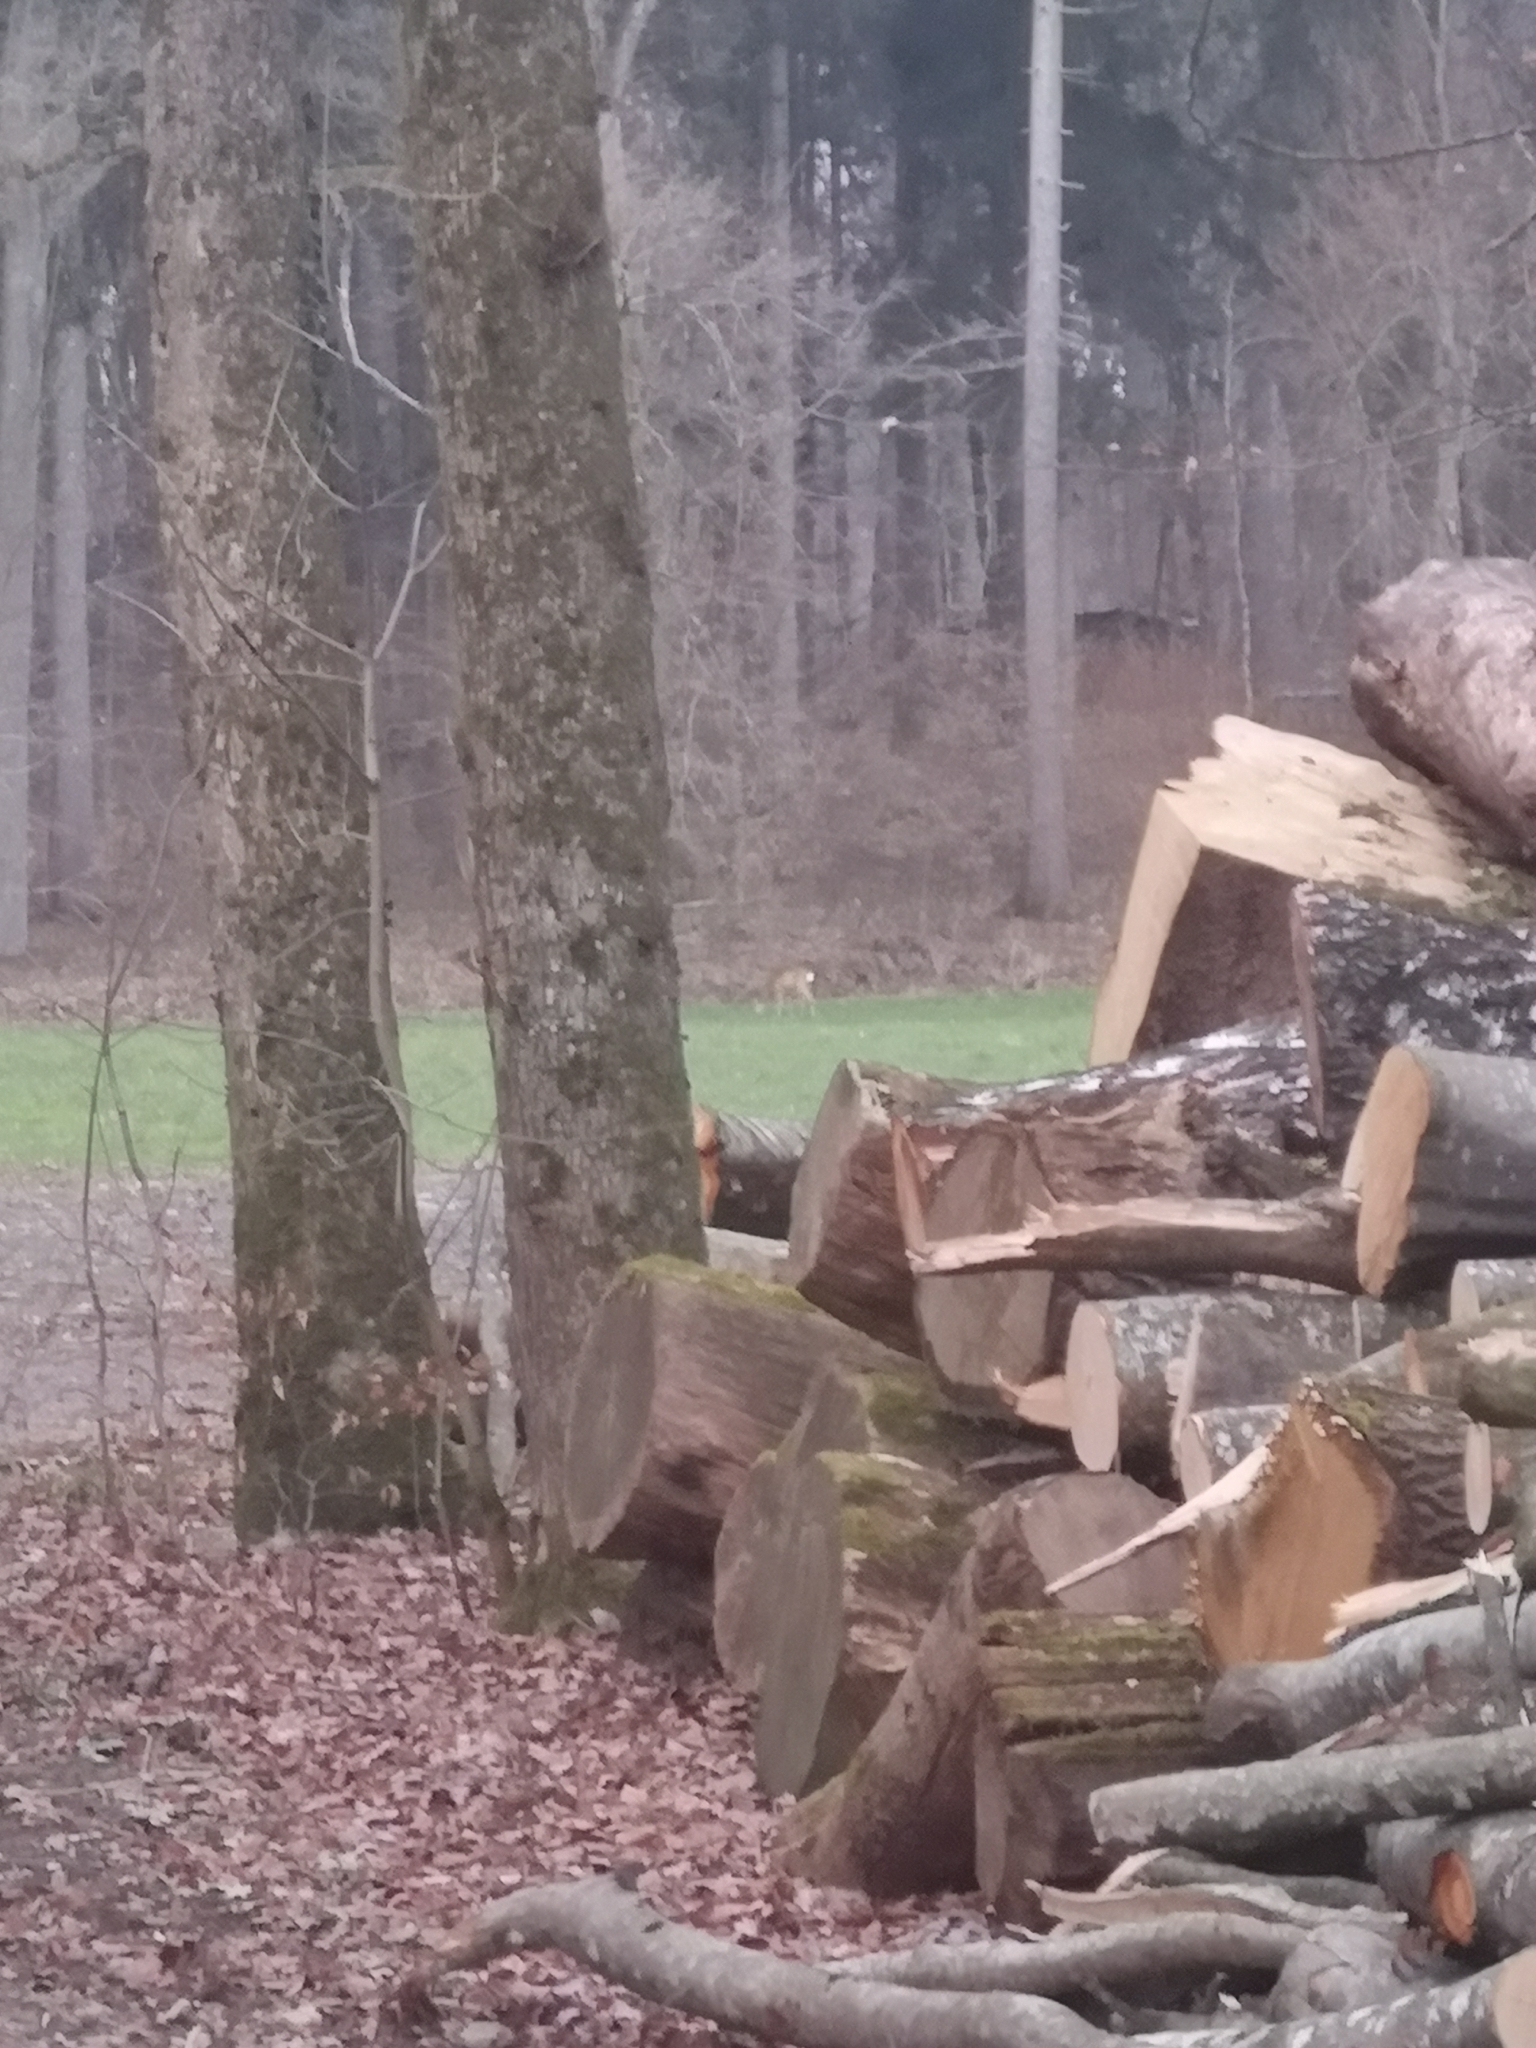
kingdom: Animalia
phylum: Chordata
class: Mammalia
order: Artiodactyla
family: Cervidae
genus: Capreolus
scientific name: Capreolus capreolus
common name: Western roe deer
